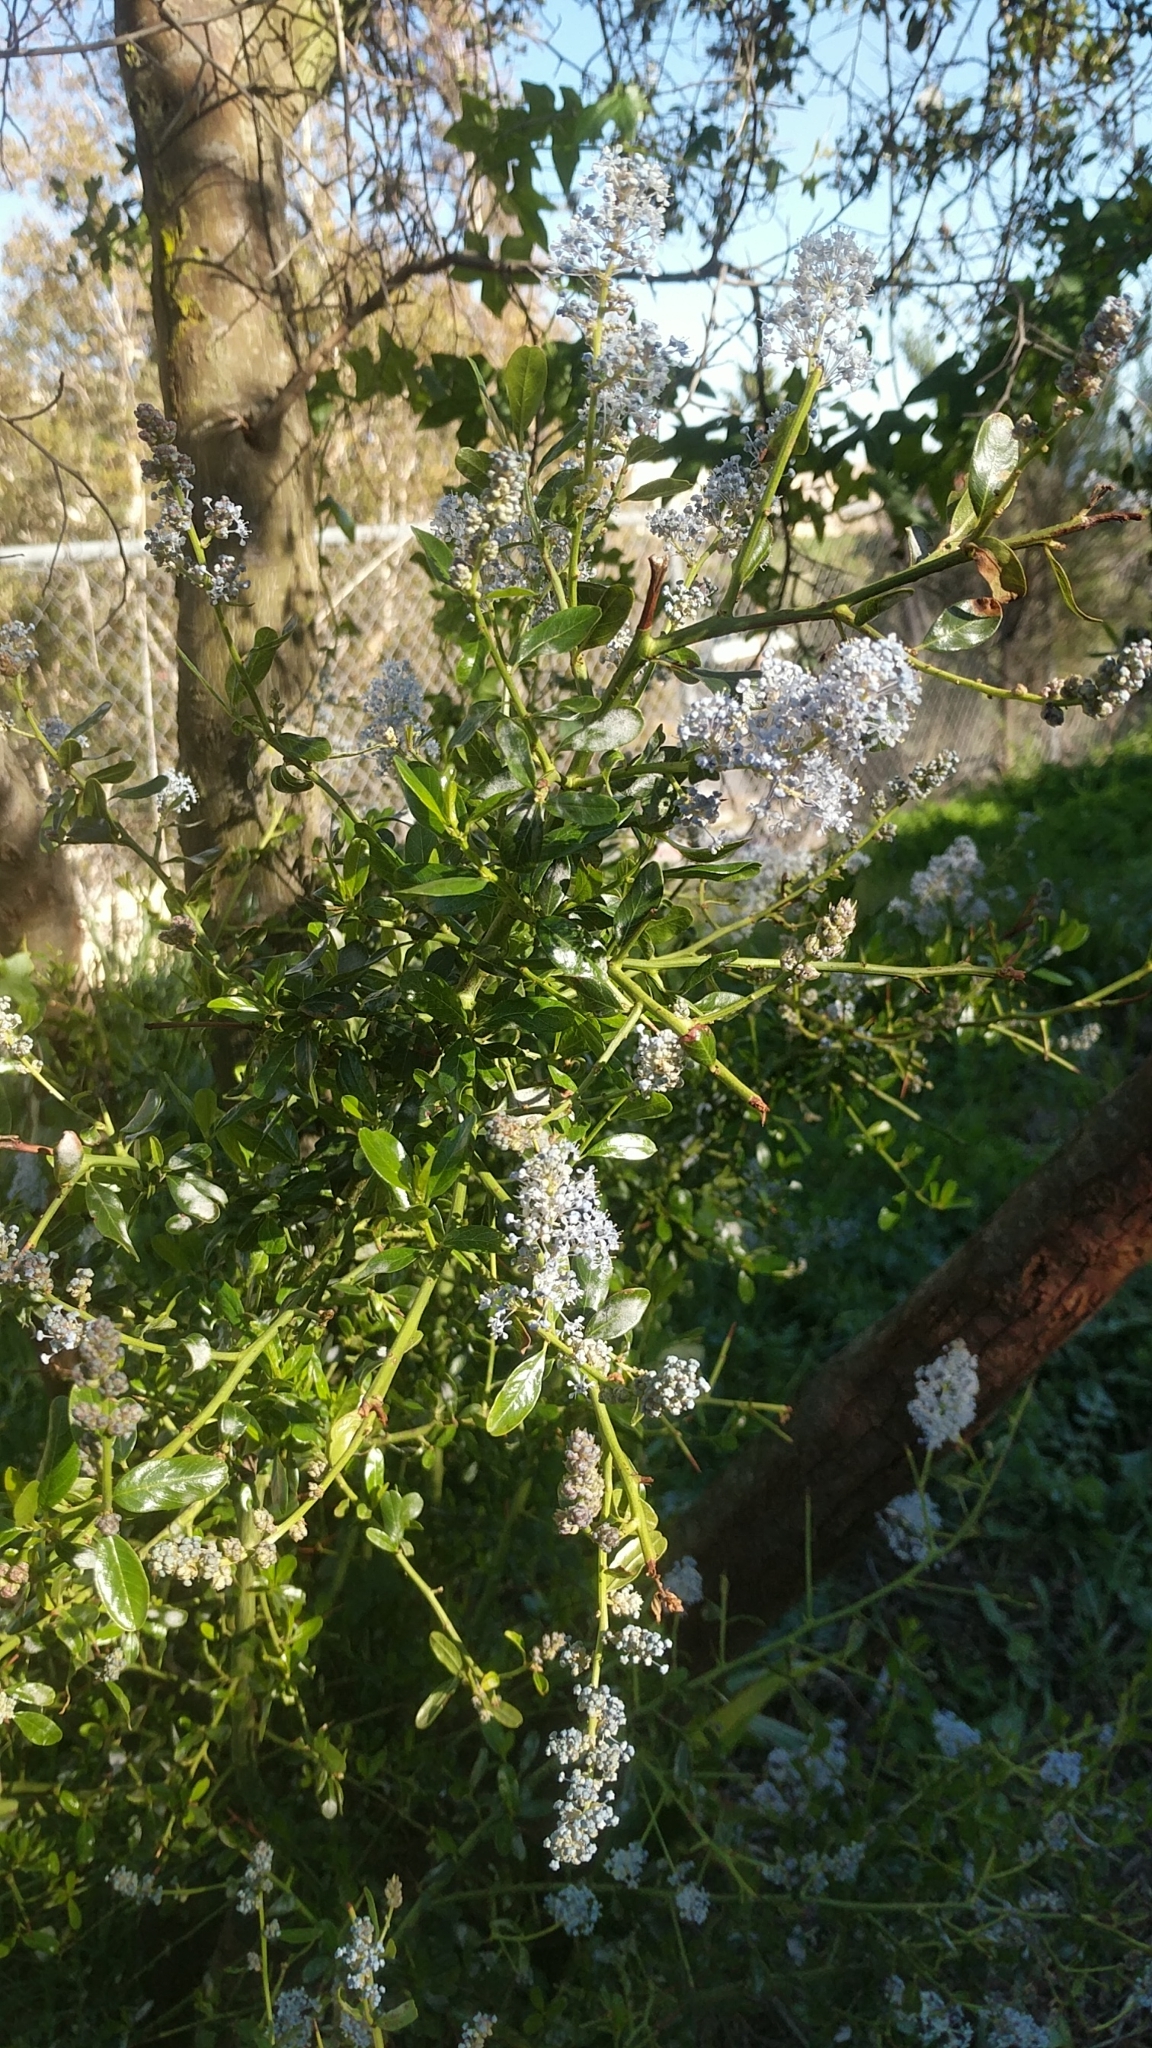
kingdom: Plantae
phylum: Tracheophyta
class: Magnoliopsida
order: Rosales
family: Rhamnaceae
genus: Ceanothus
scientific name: Ceanothus spinosus
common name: Greenbark whitethorn
